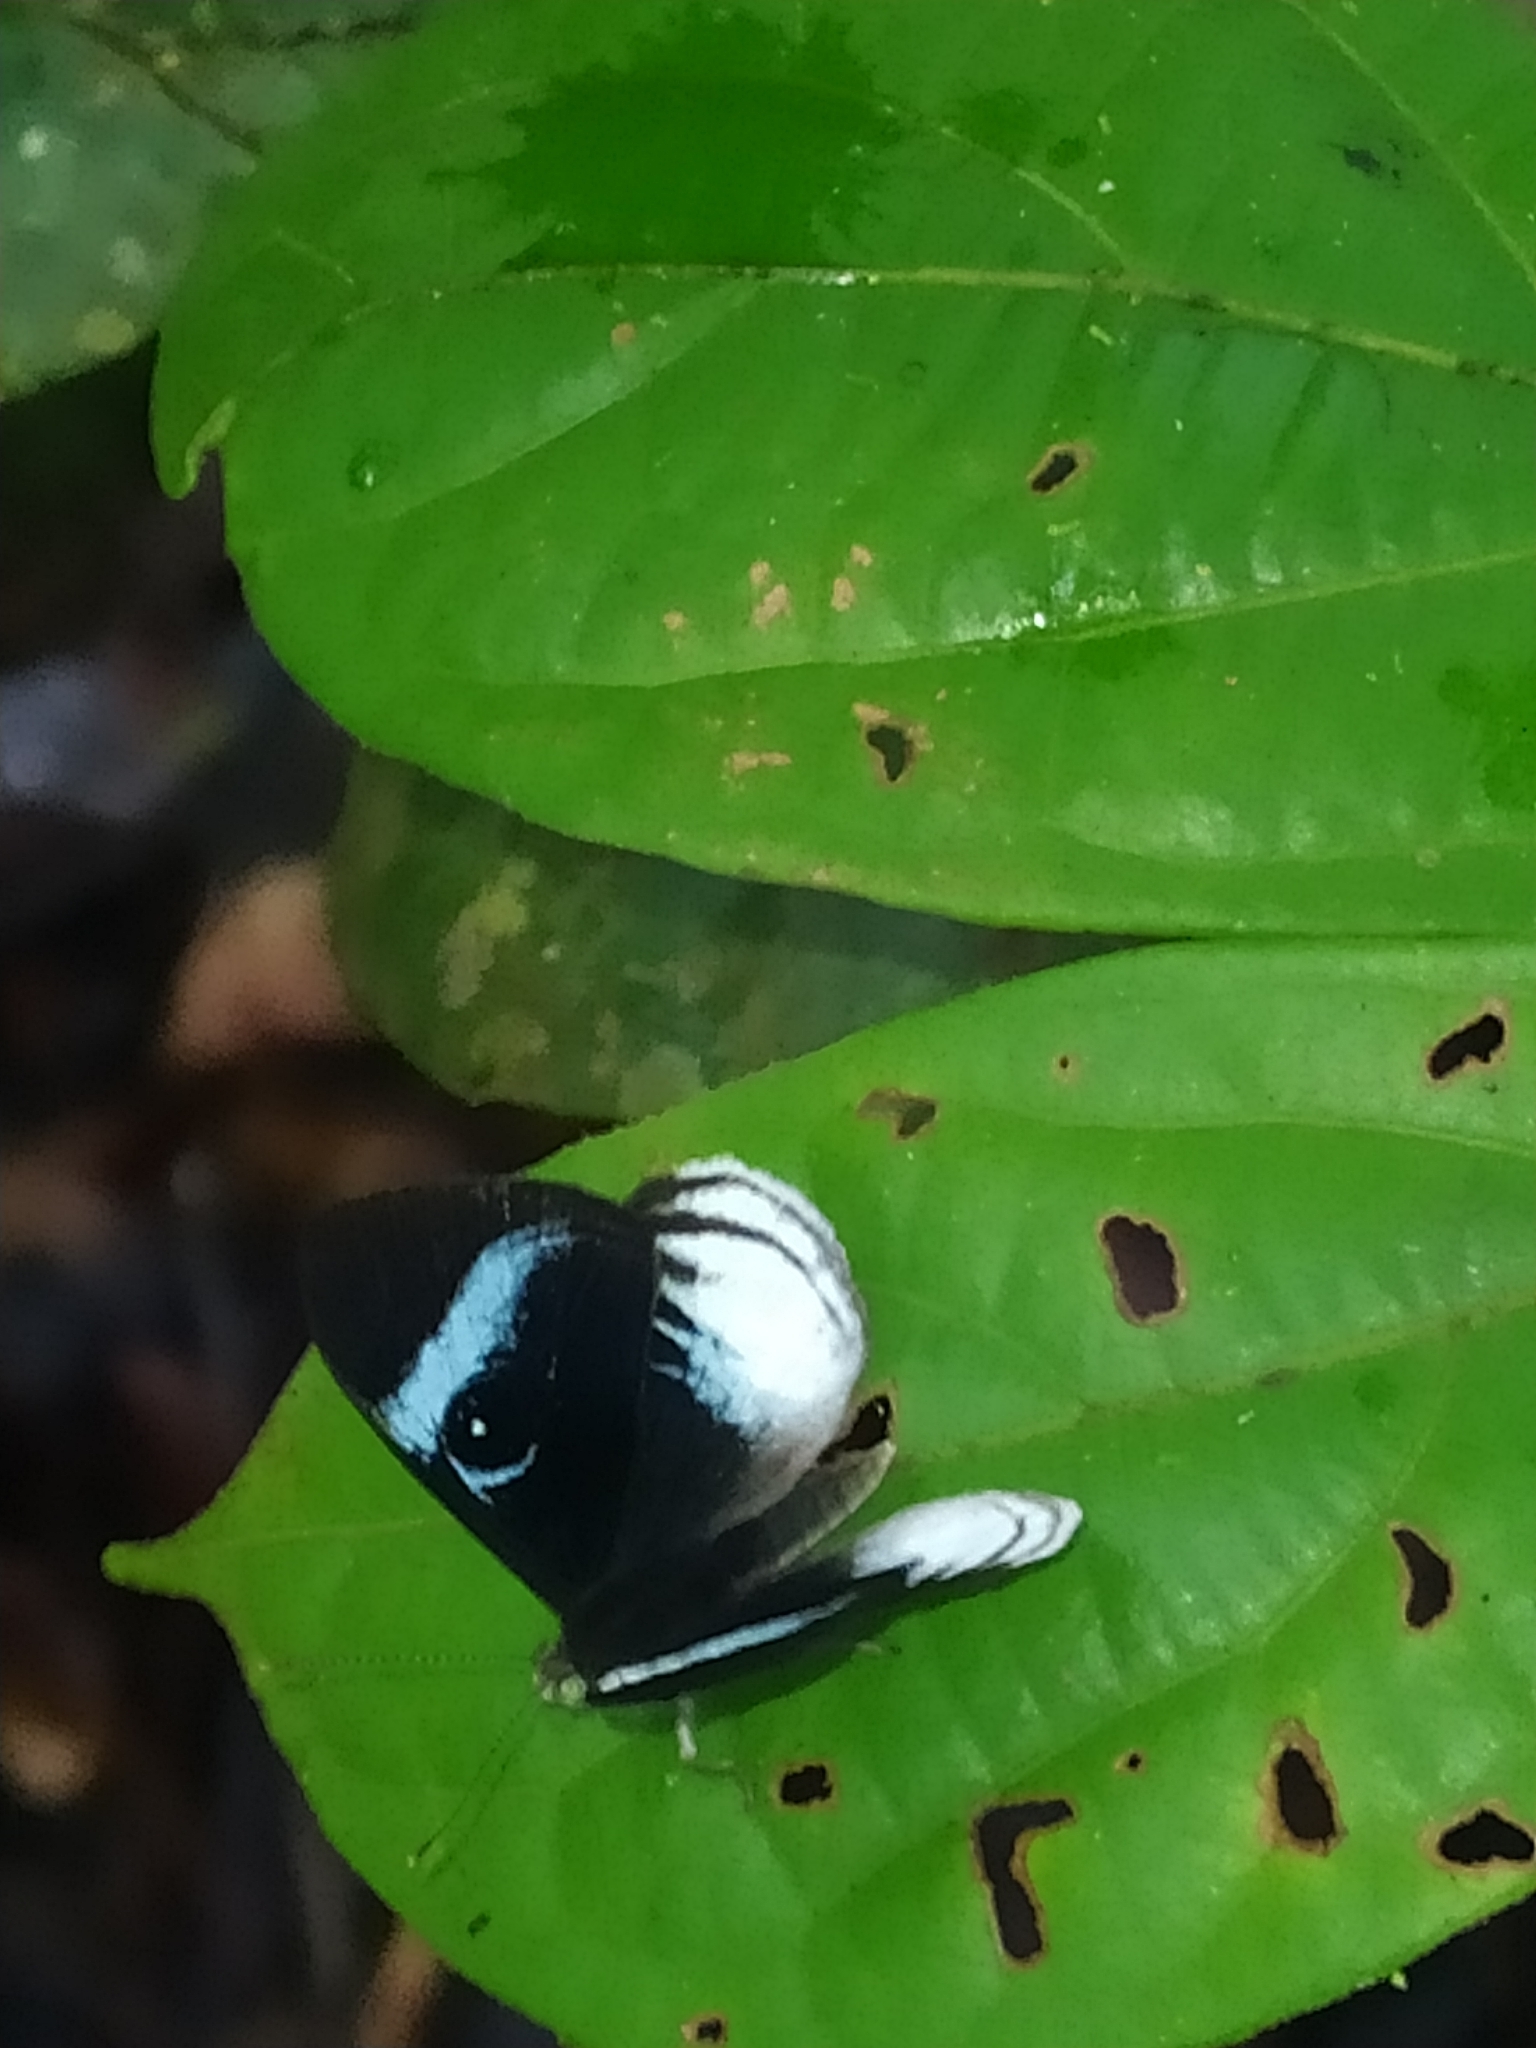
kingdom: Animalia
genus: Mesosemia
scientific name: Mesosemia philocles
